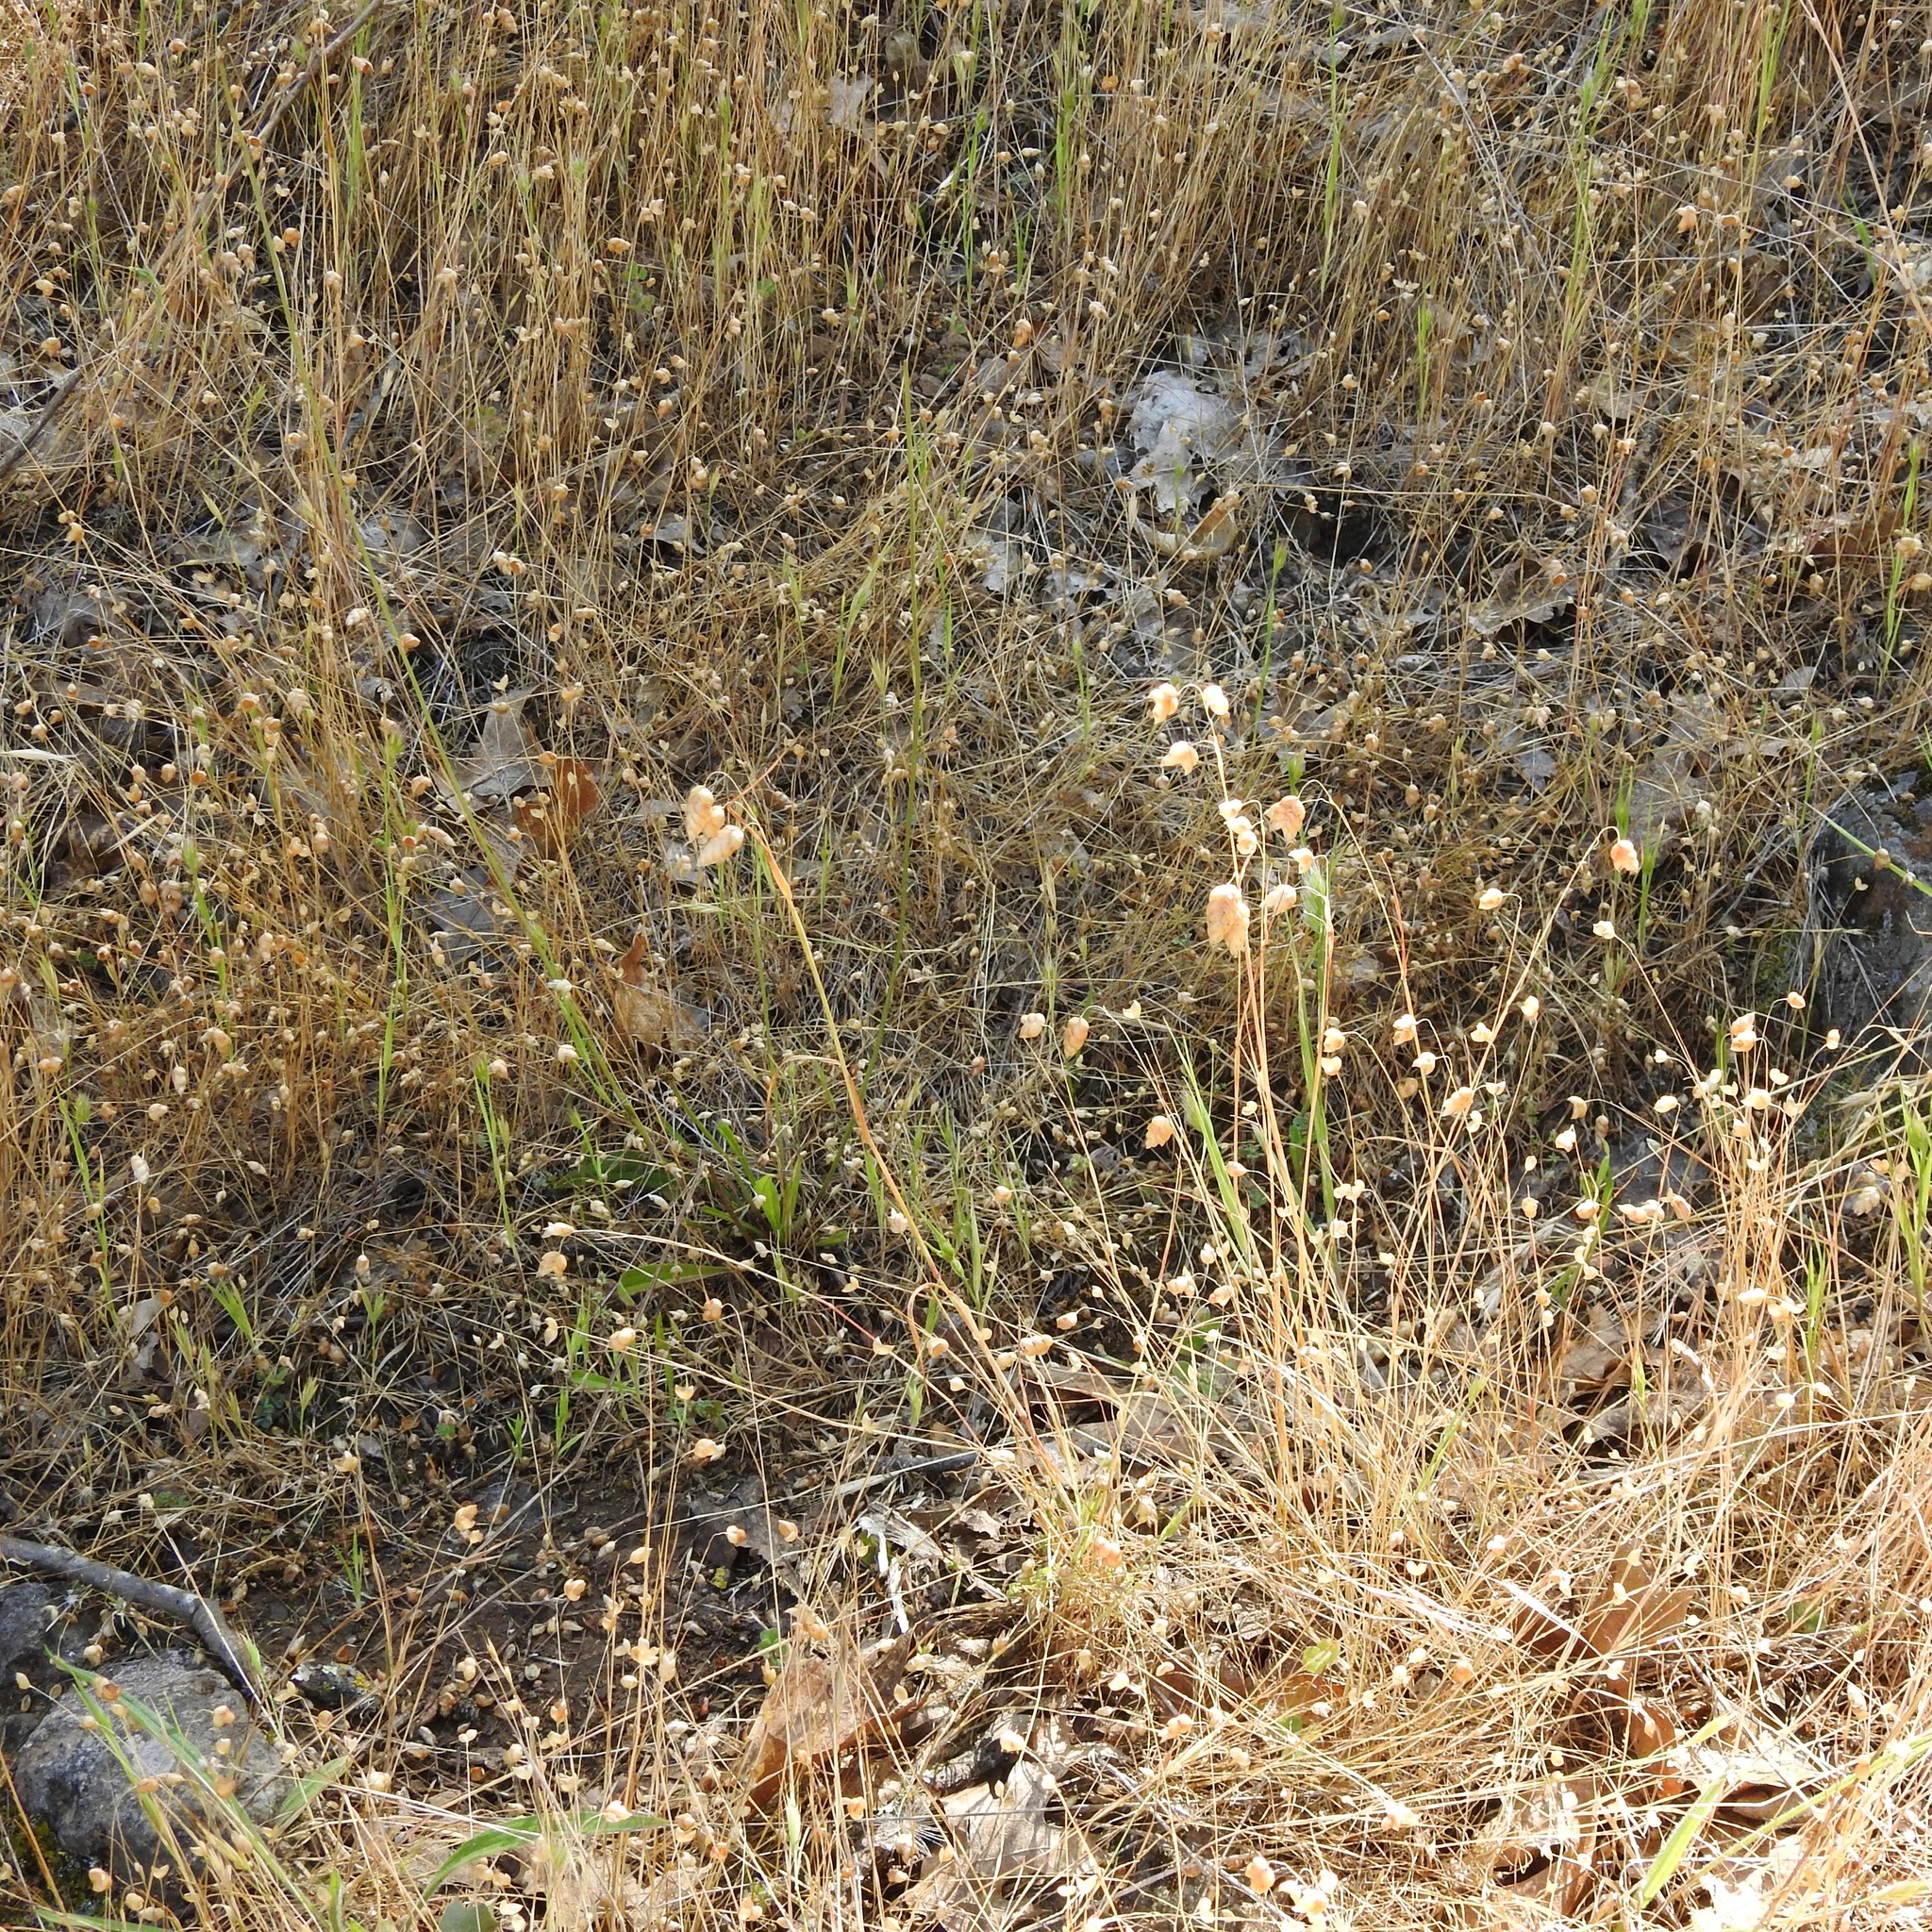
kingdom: Plantae
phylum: Tracheophyta
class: Liliopsida
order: Poales
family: Poaceae
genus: Briza
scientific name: Briza maxima
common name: Big quakinggrass
